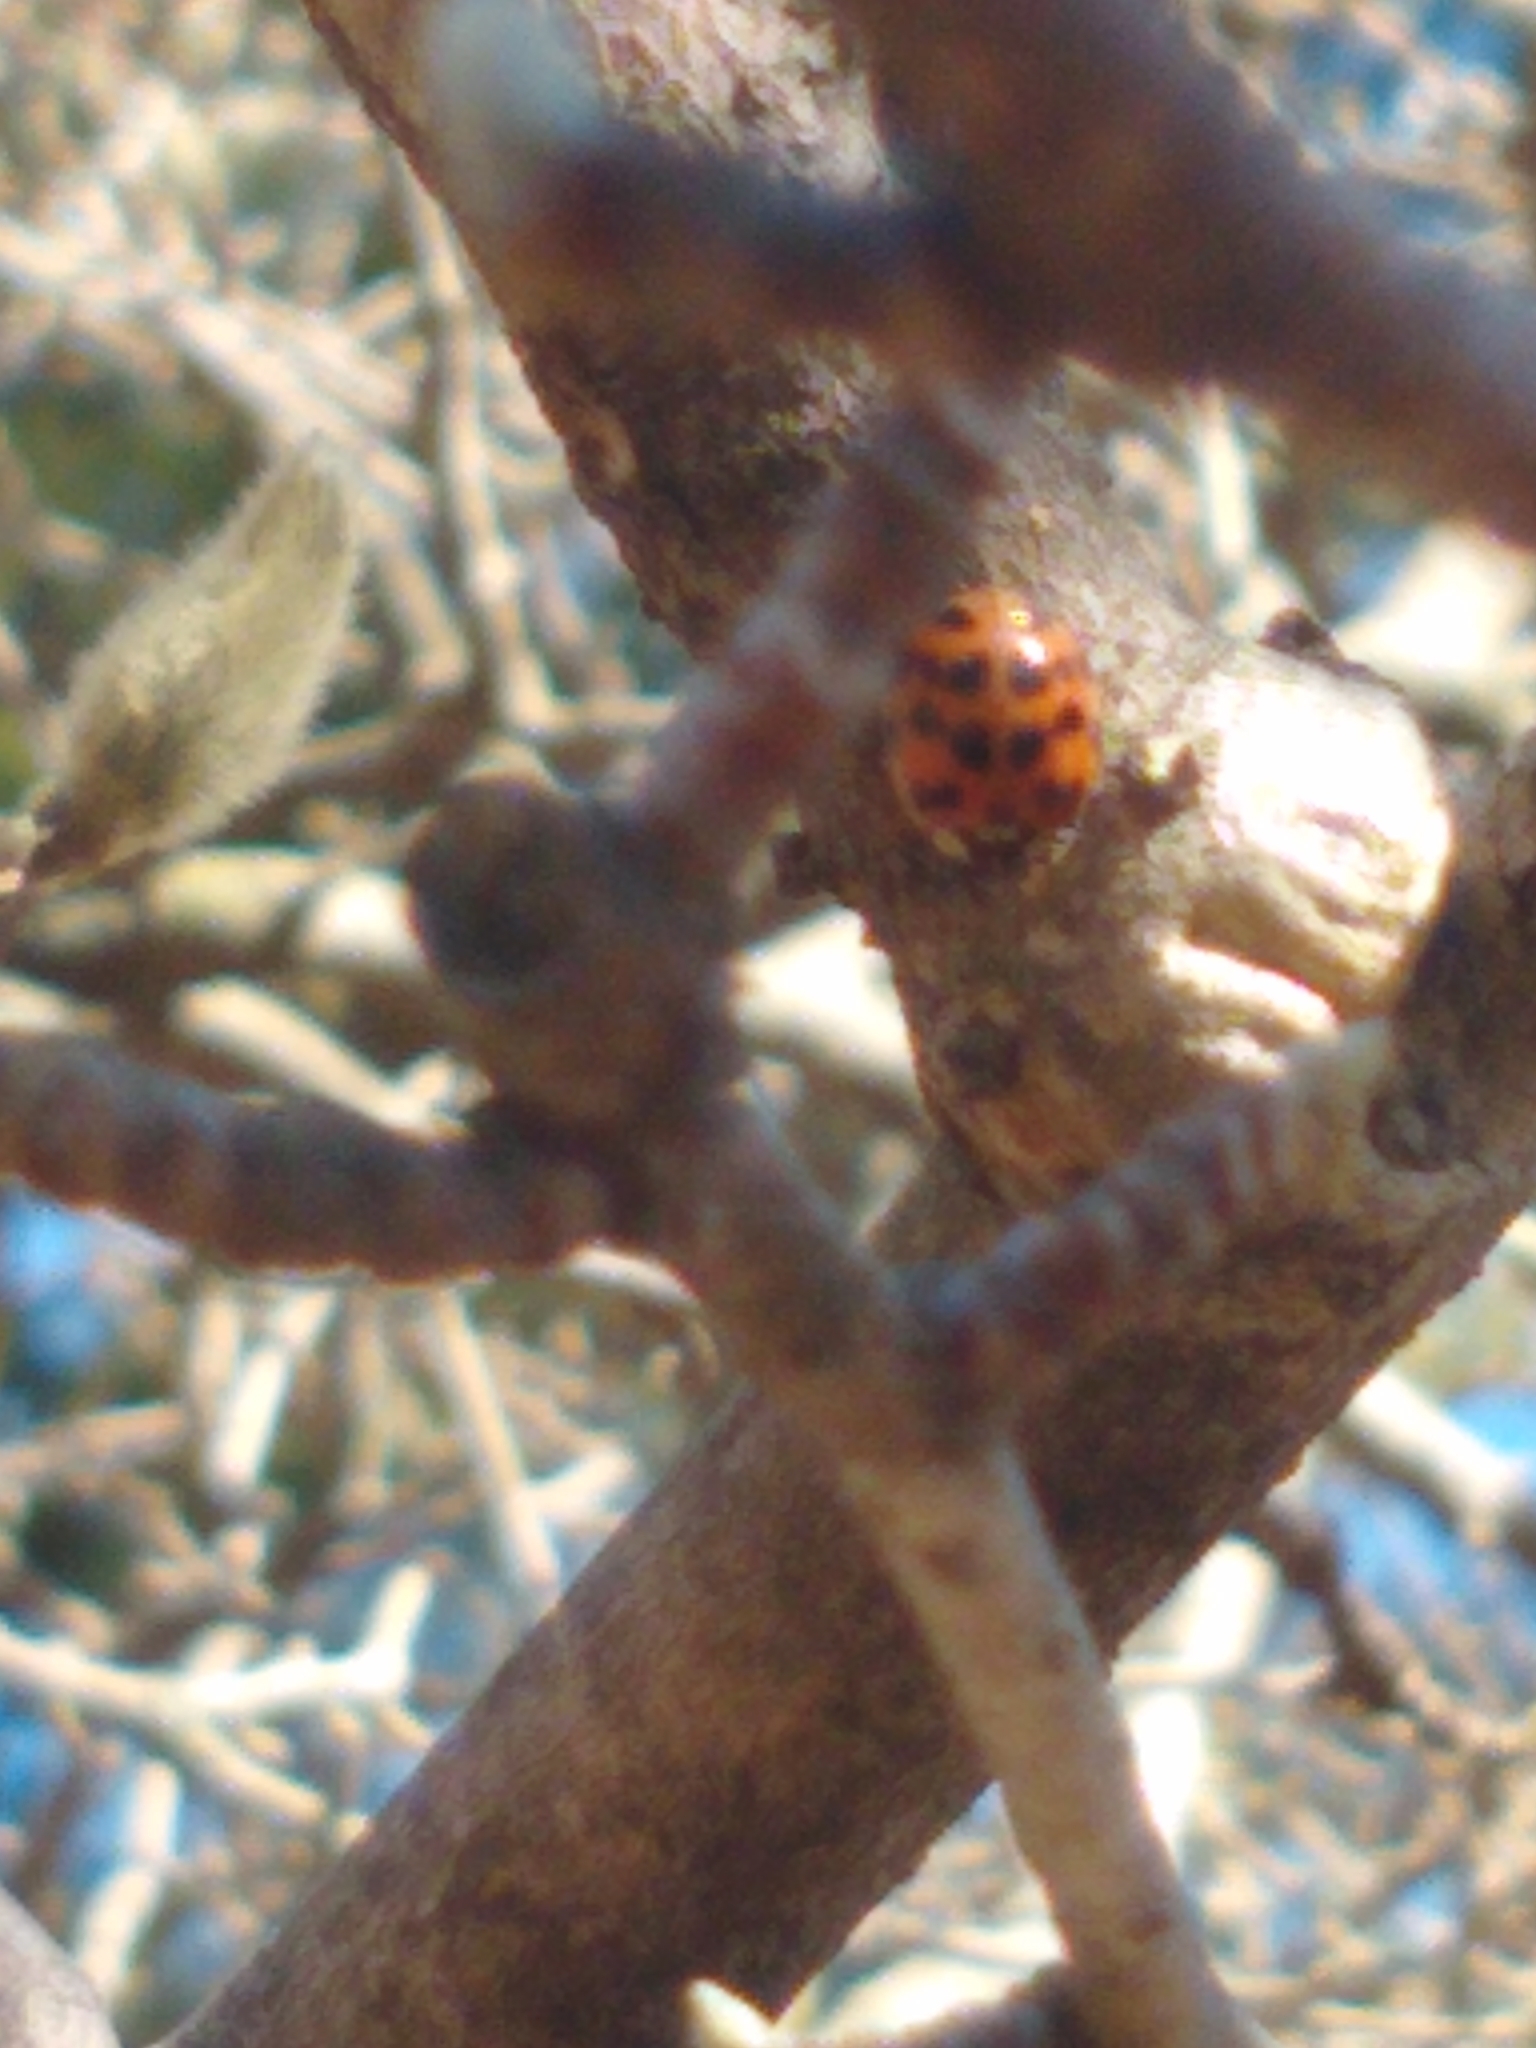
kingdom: Animalia
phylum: Arthropoda
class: Insecta
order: Coleoptera
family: Coccinellidae
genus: Harmonia
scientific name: Harmonia axyridis
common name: Harlequin ladybird
